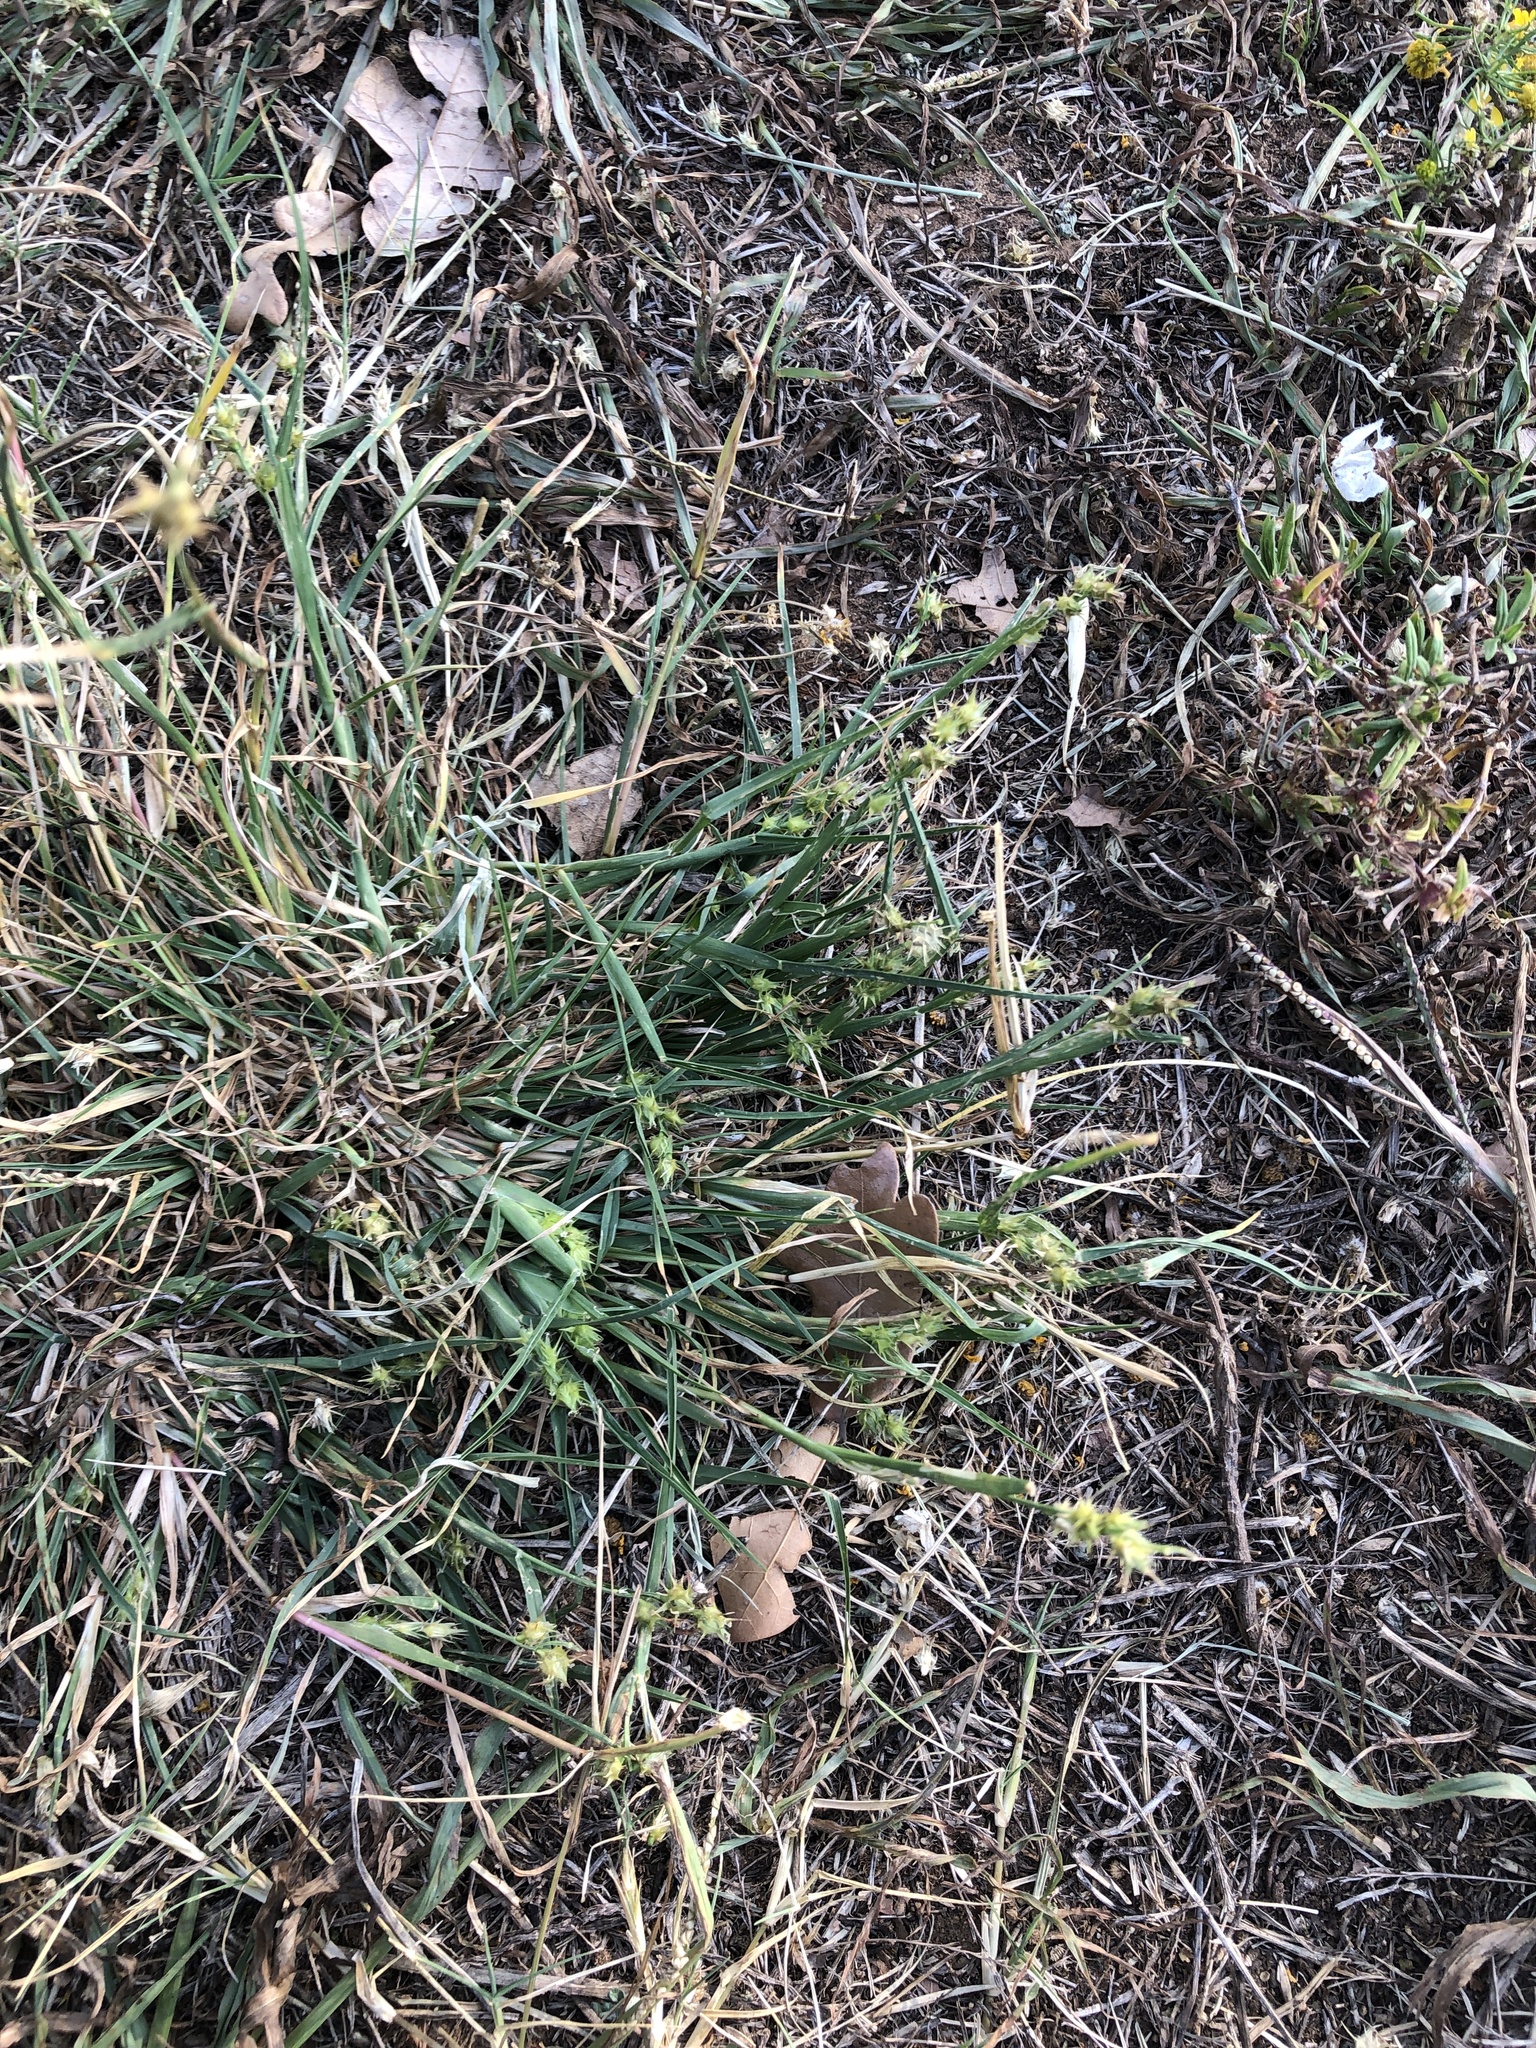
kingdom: Plantae
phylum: Tracheophyta
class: Liliopsida
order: Poales
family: Poaceae
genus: Cenchrus
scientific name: Cenchrus spinifex
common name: Coast sandbur
